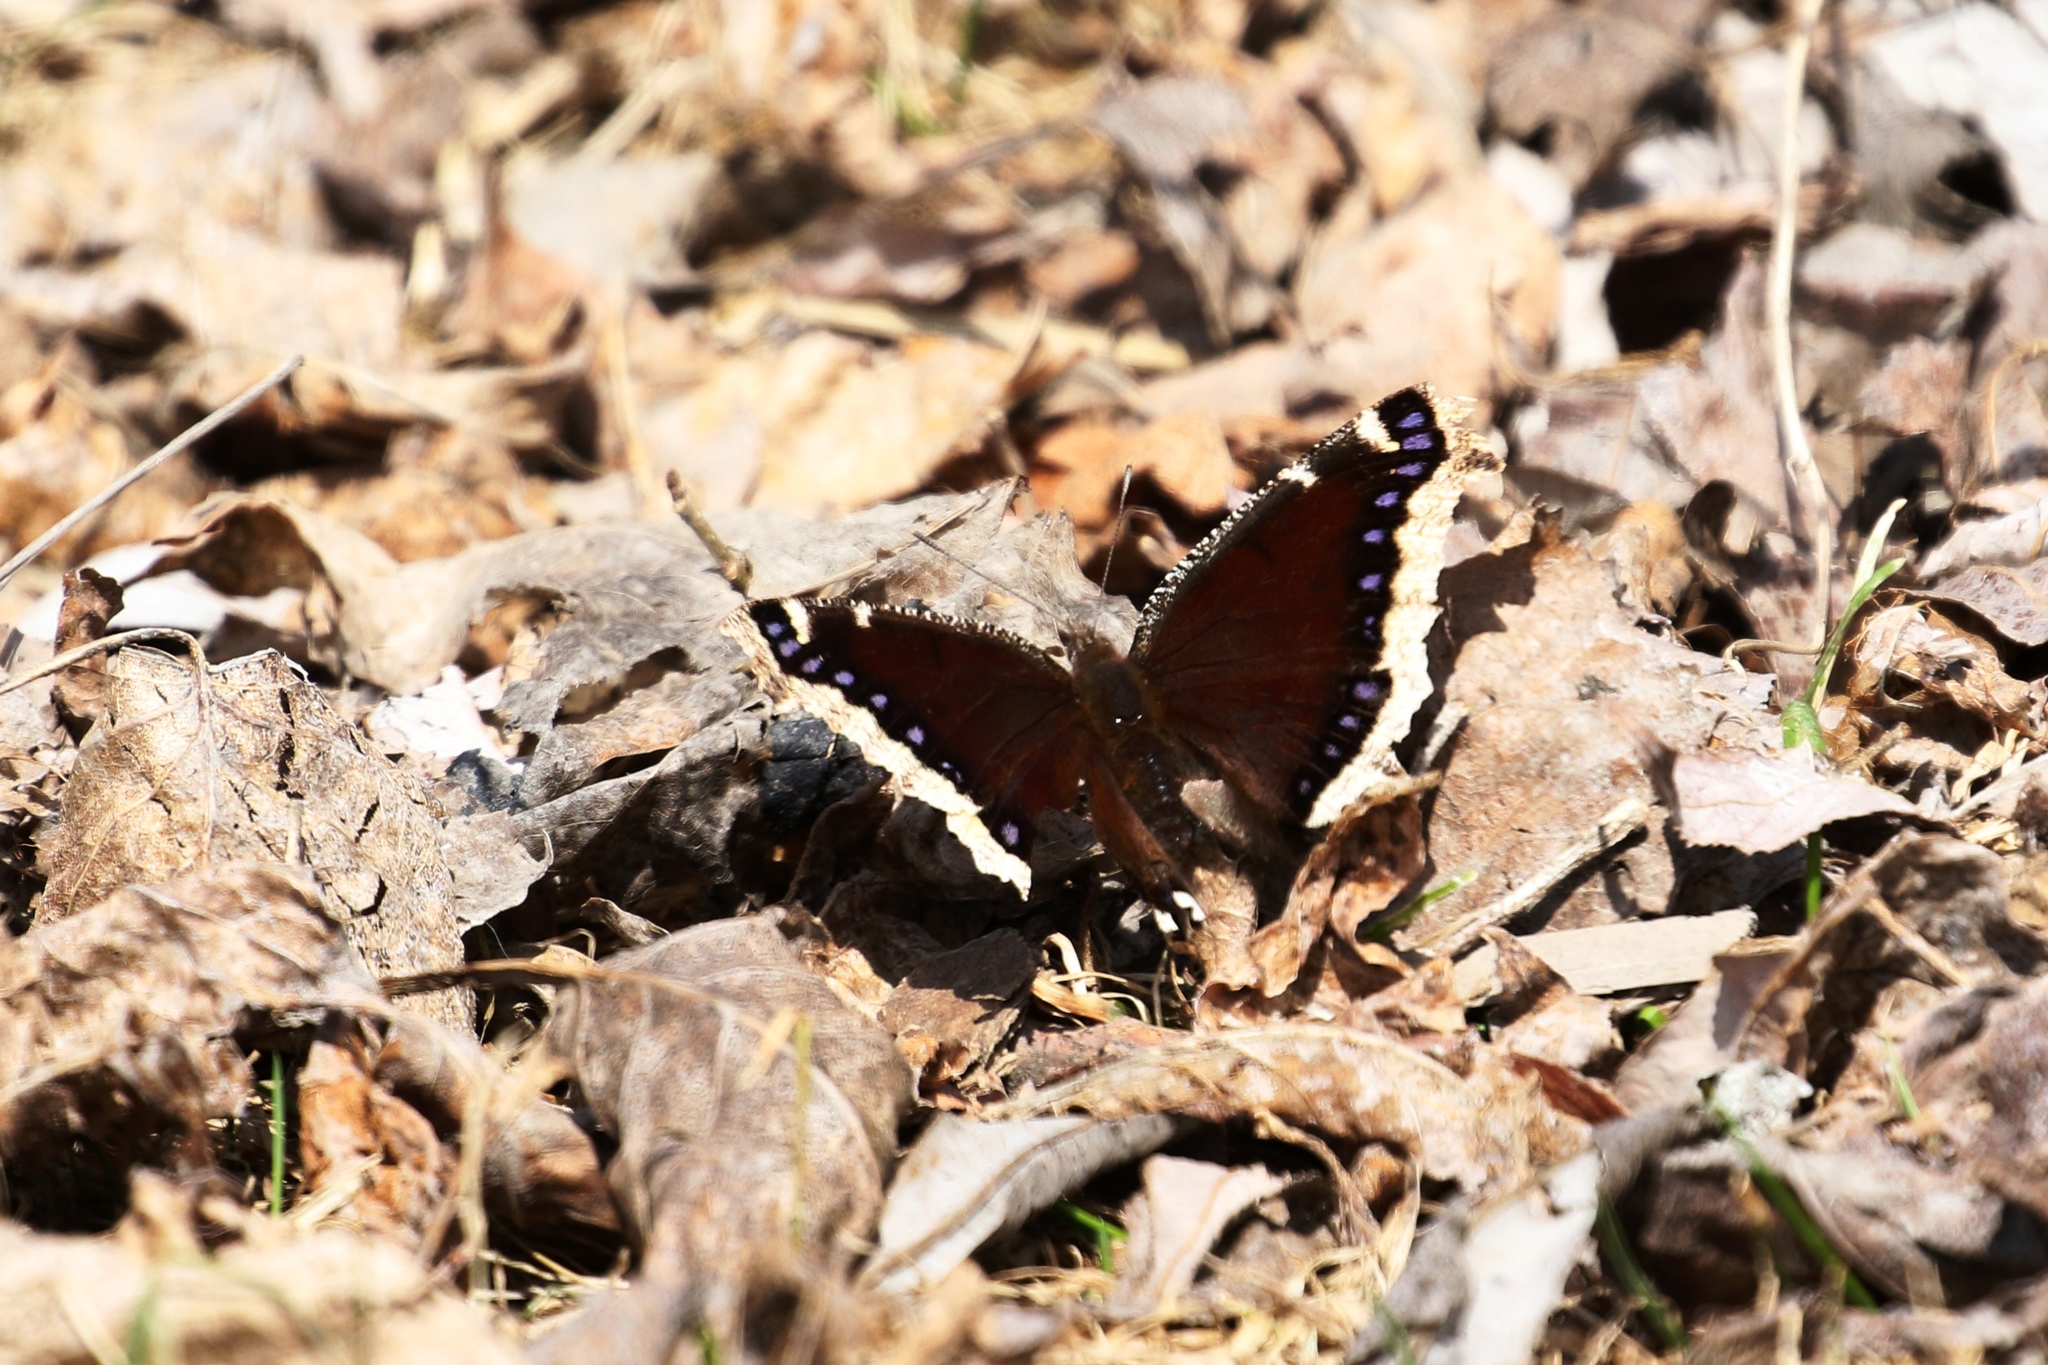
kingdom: Animalia
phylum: Arthropoda
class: Insecta
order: Lepidoptera
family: Nymphalidae
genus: Nymphalis
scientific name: Nymphalis antiopa
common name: Camberwell beauty
